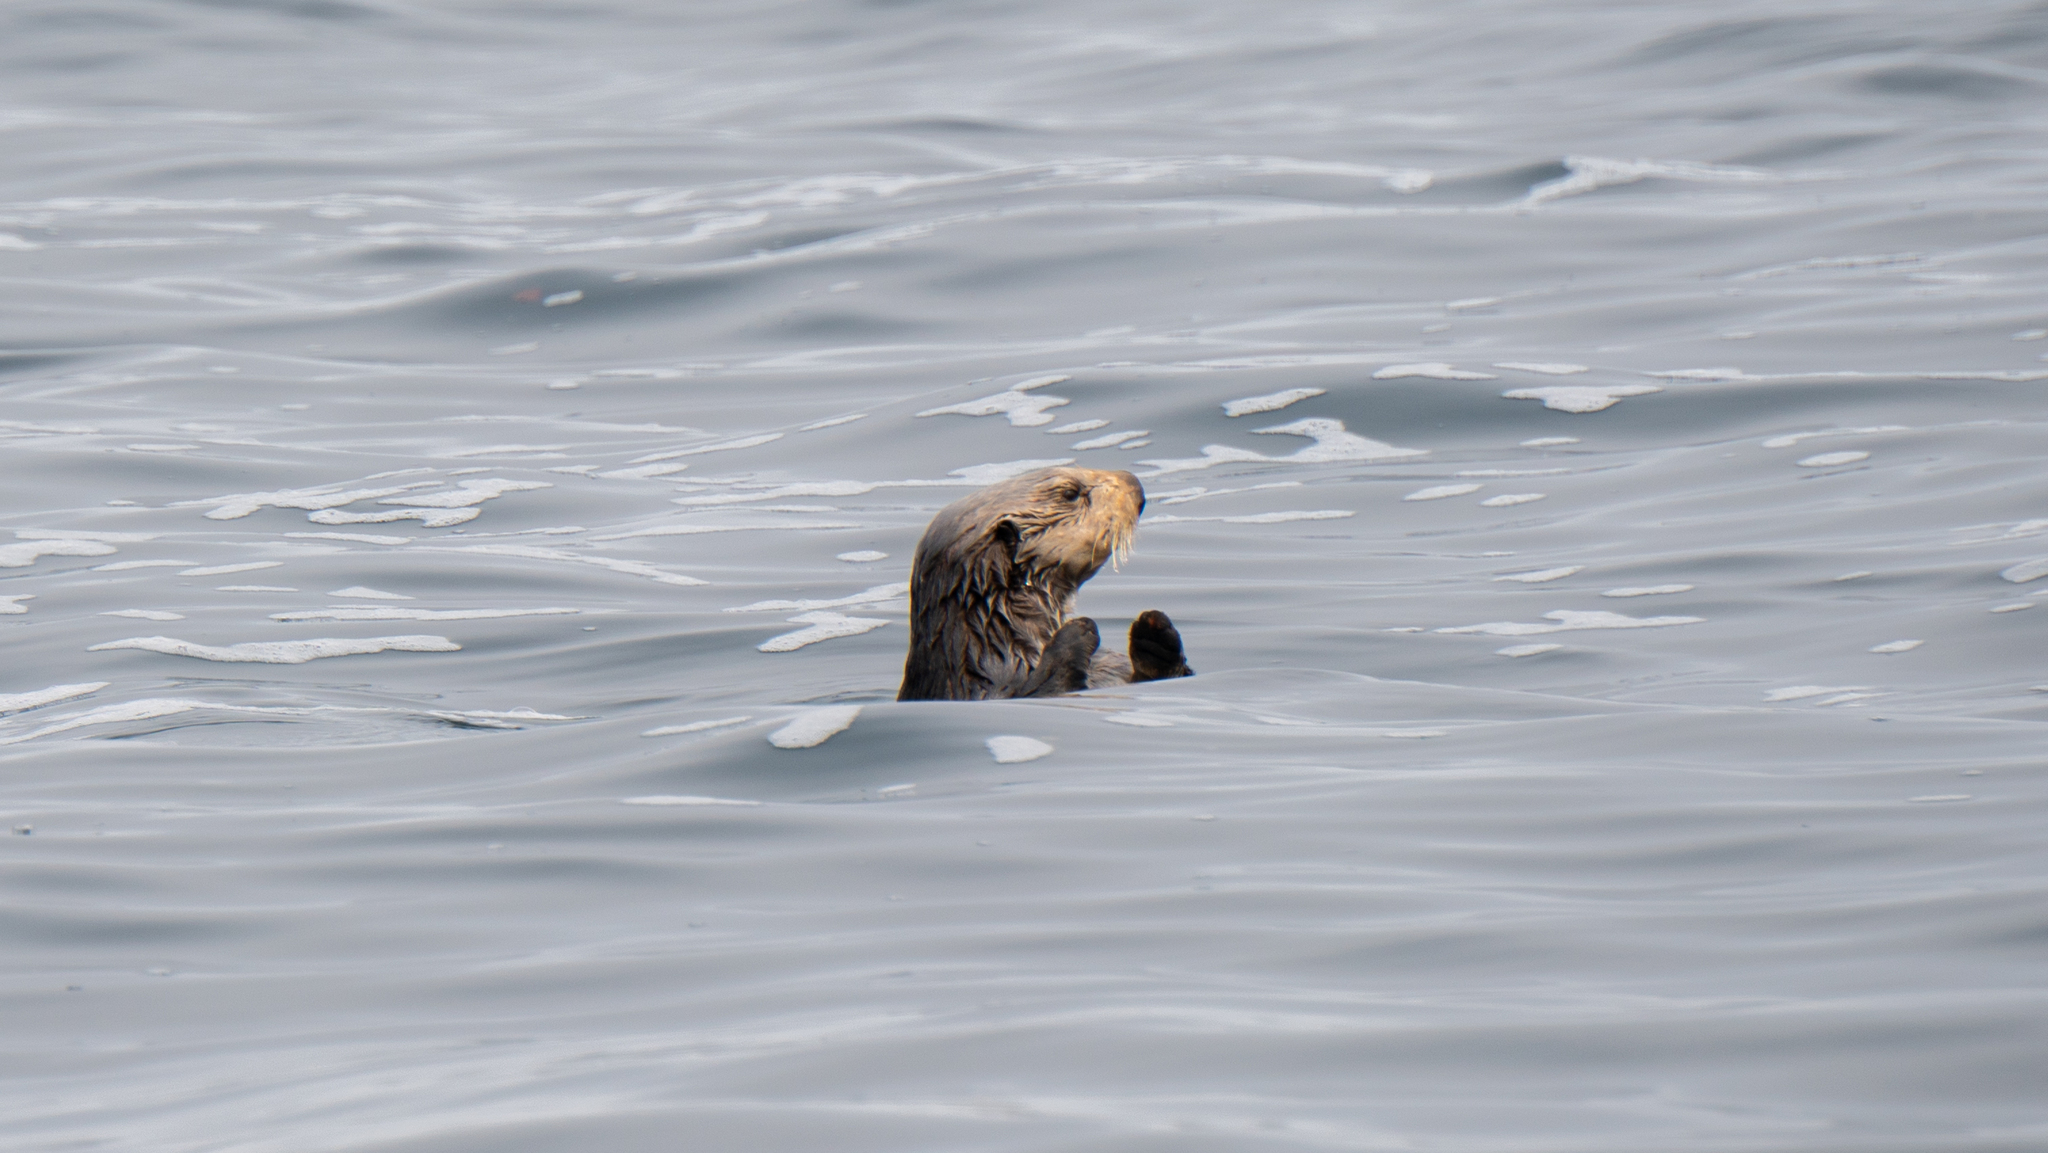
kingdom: Animalia
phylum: Chordata
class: Mammalia
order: Carnivora
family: Mustelidae
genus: Enhydra
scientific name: Enhydra lutris
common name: Sea otter
